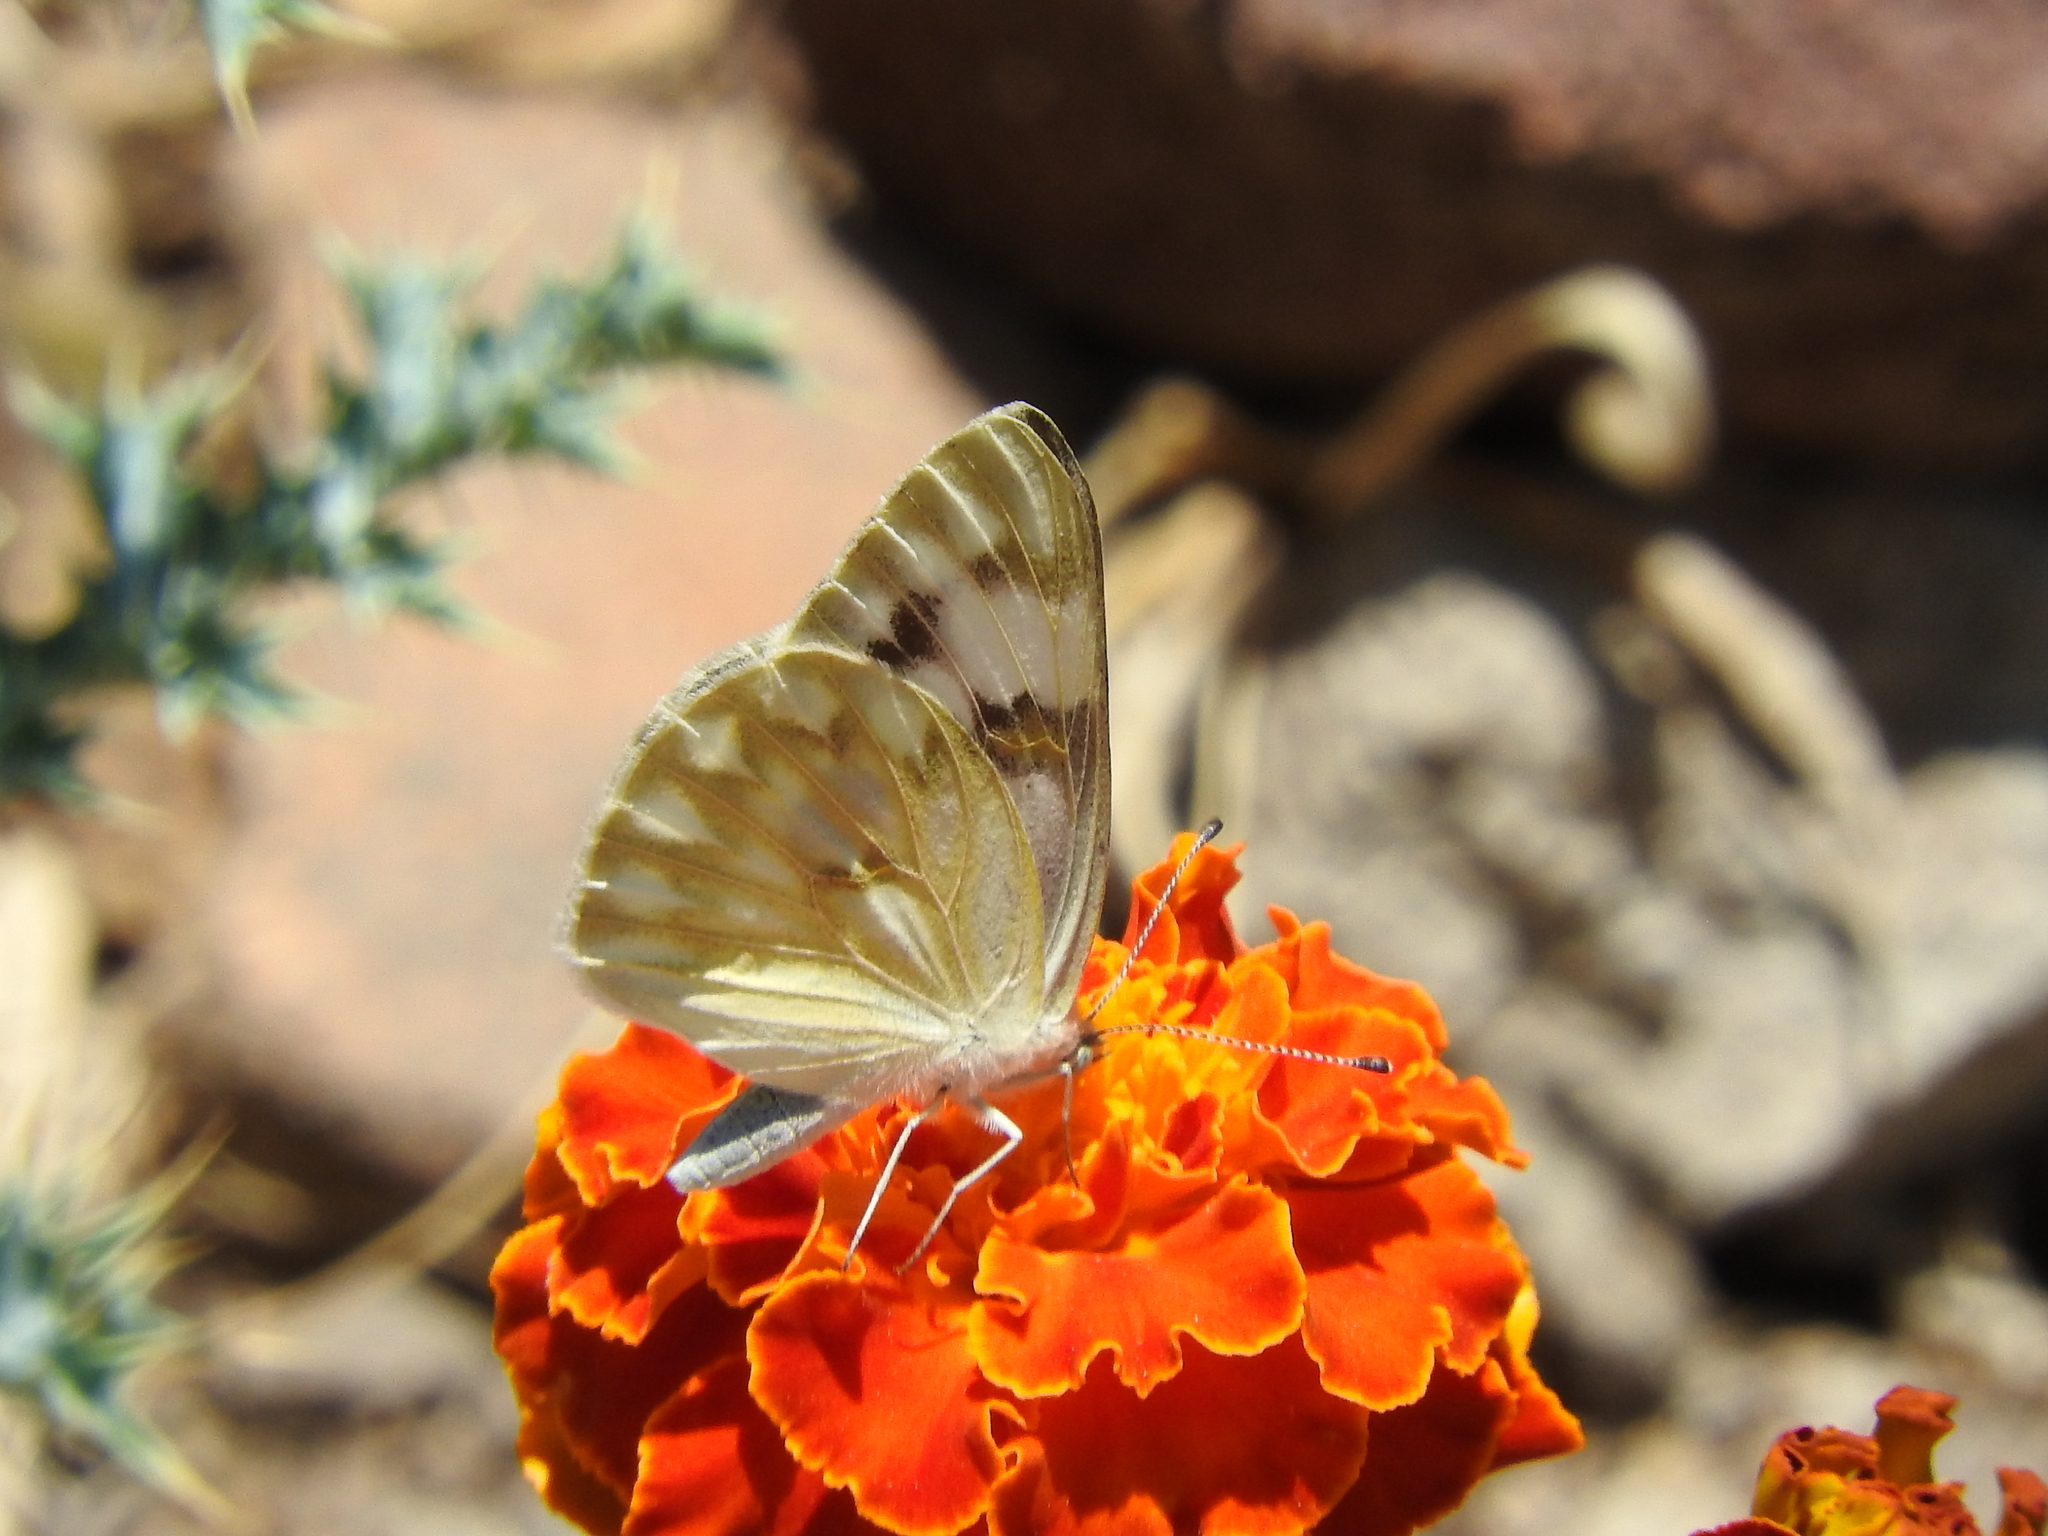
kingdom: Animalia
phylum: Arthropoda
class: Insecta
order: Lepidoptera
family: Pieridae
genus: Pontia
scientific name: Pontia protodice
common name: Checkered white
